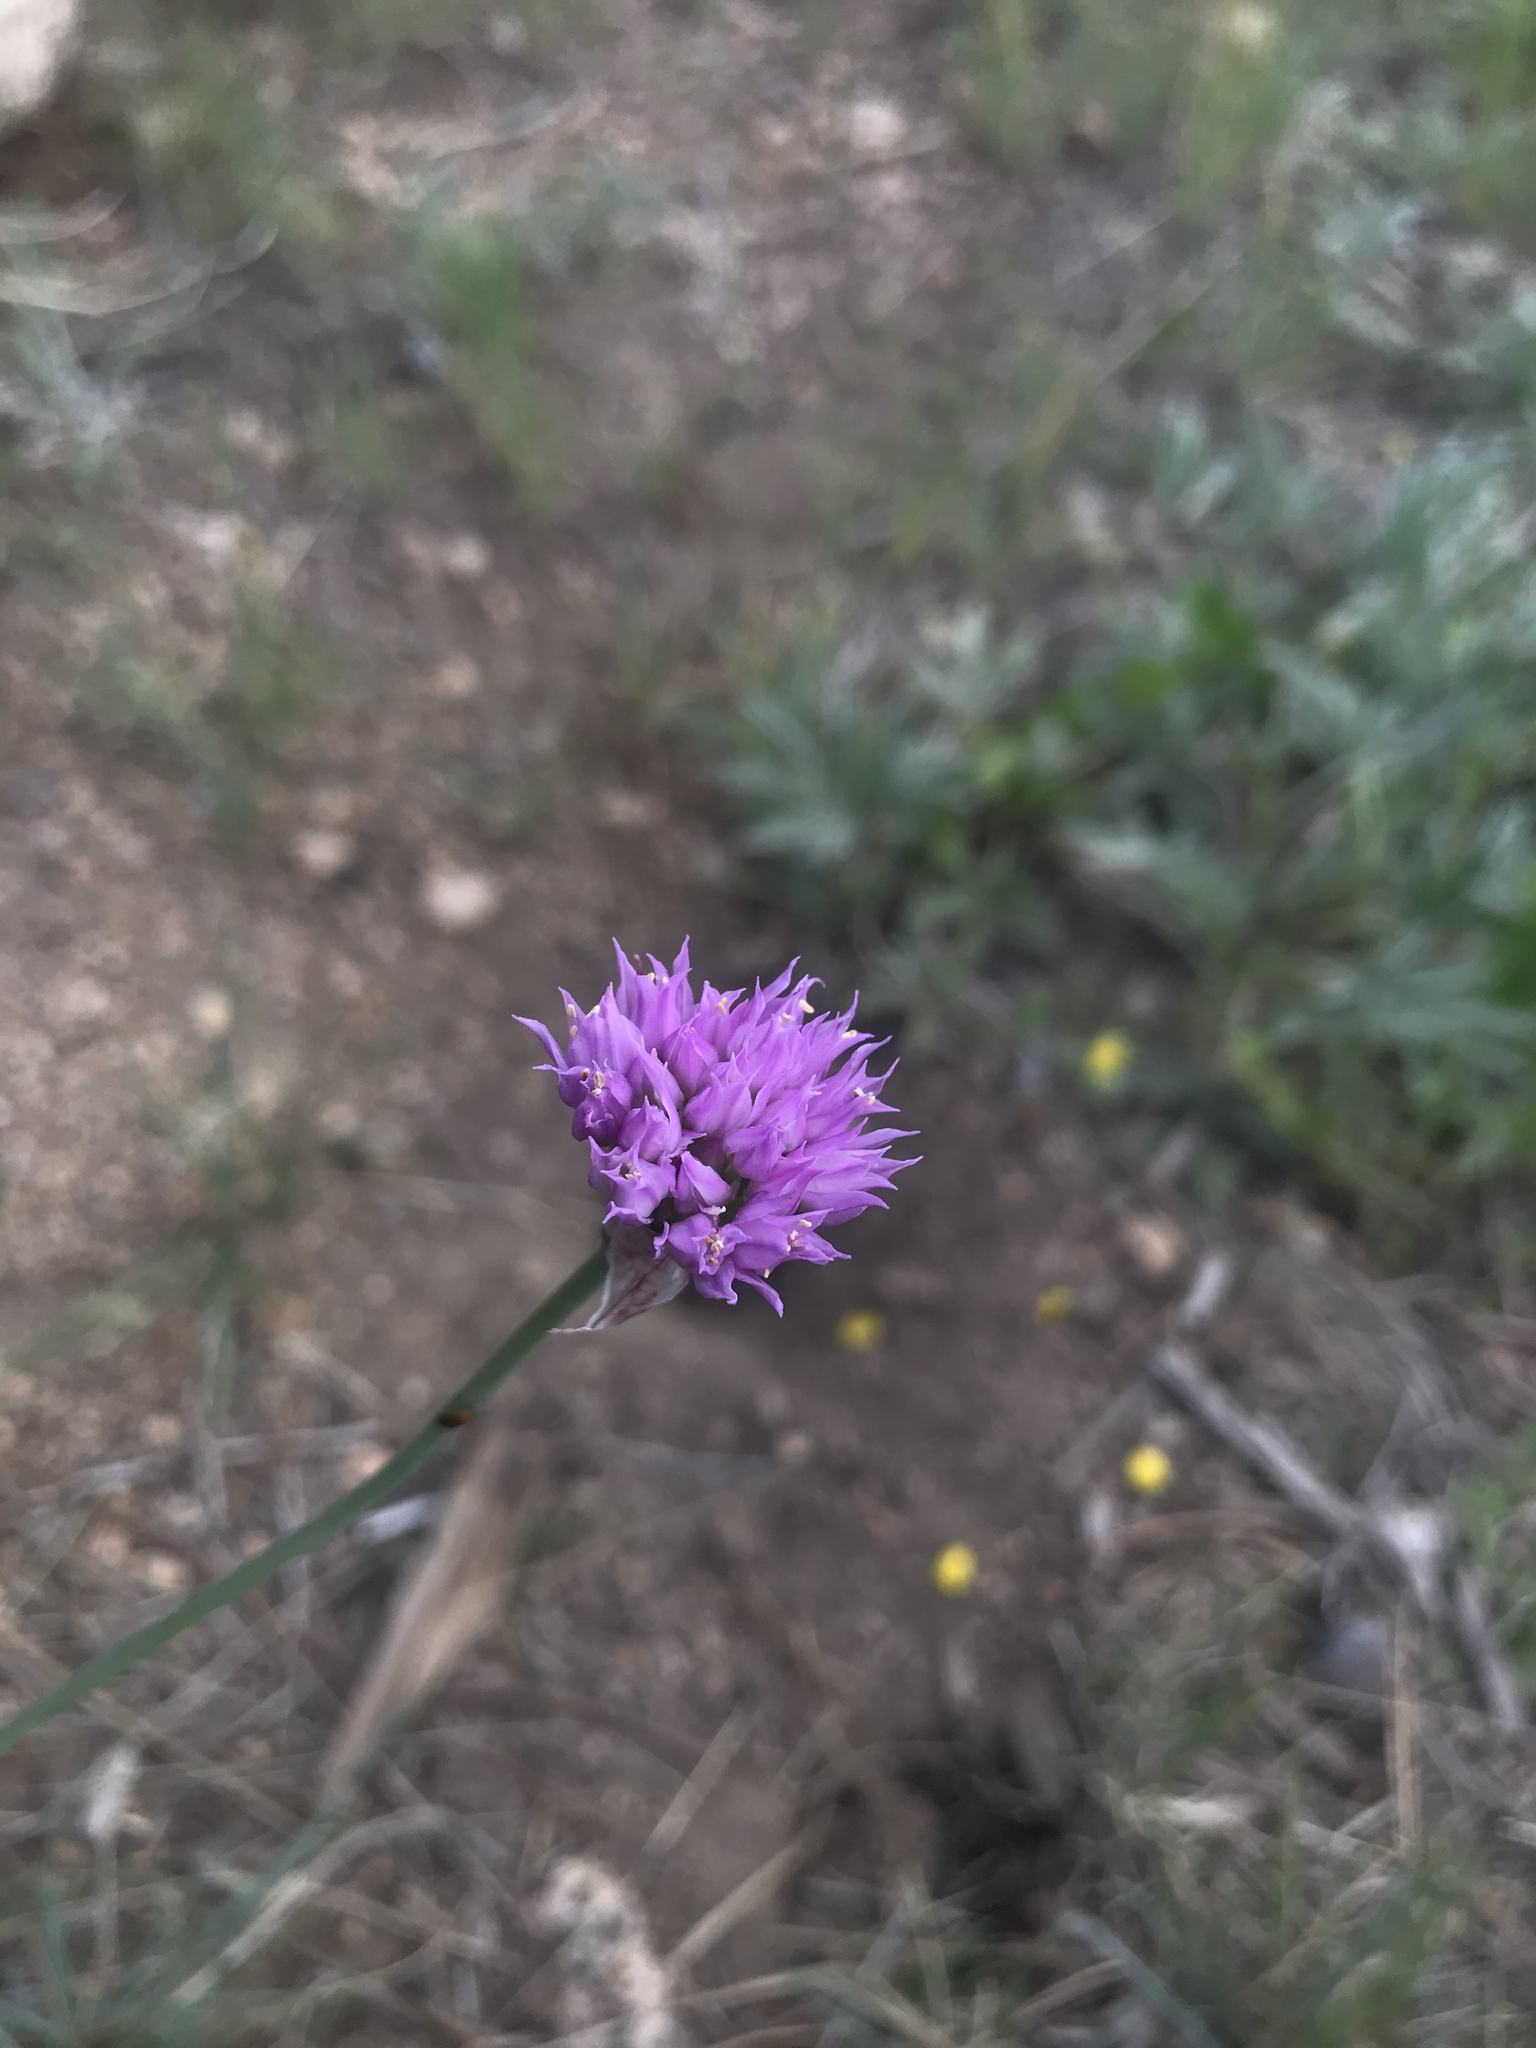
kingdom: Plantae
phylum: Tracheophyta
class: Liliopsida
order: Asparagales
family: Amaryllidaceae
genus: Allium
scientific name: Allium geyeri
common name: Geyer's onion
